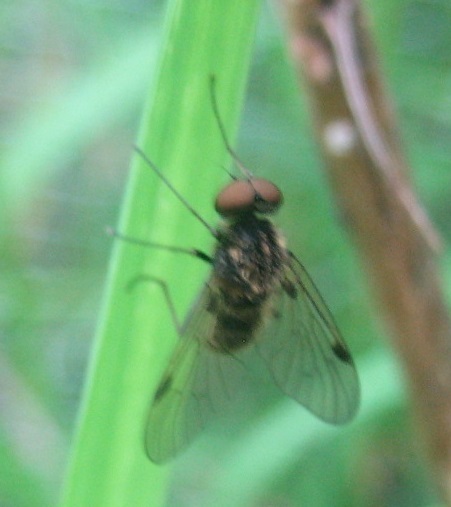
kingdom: Animalia
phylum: Arthropoda
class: Insecta
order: Diptera
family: Rhagionidae
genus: Chrysopilus
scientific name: Chrysopilus cristatus
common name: Black snipefly
